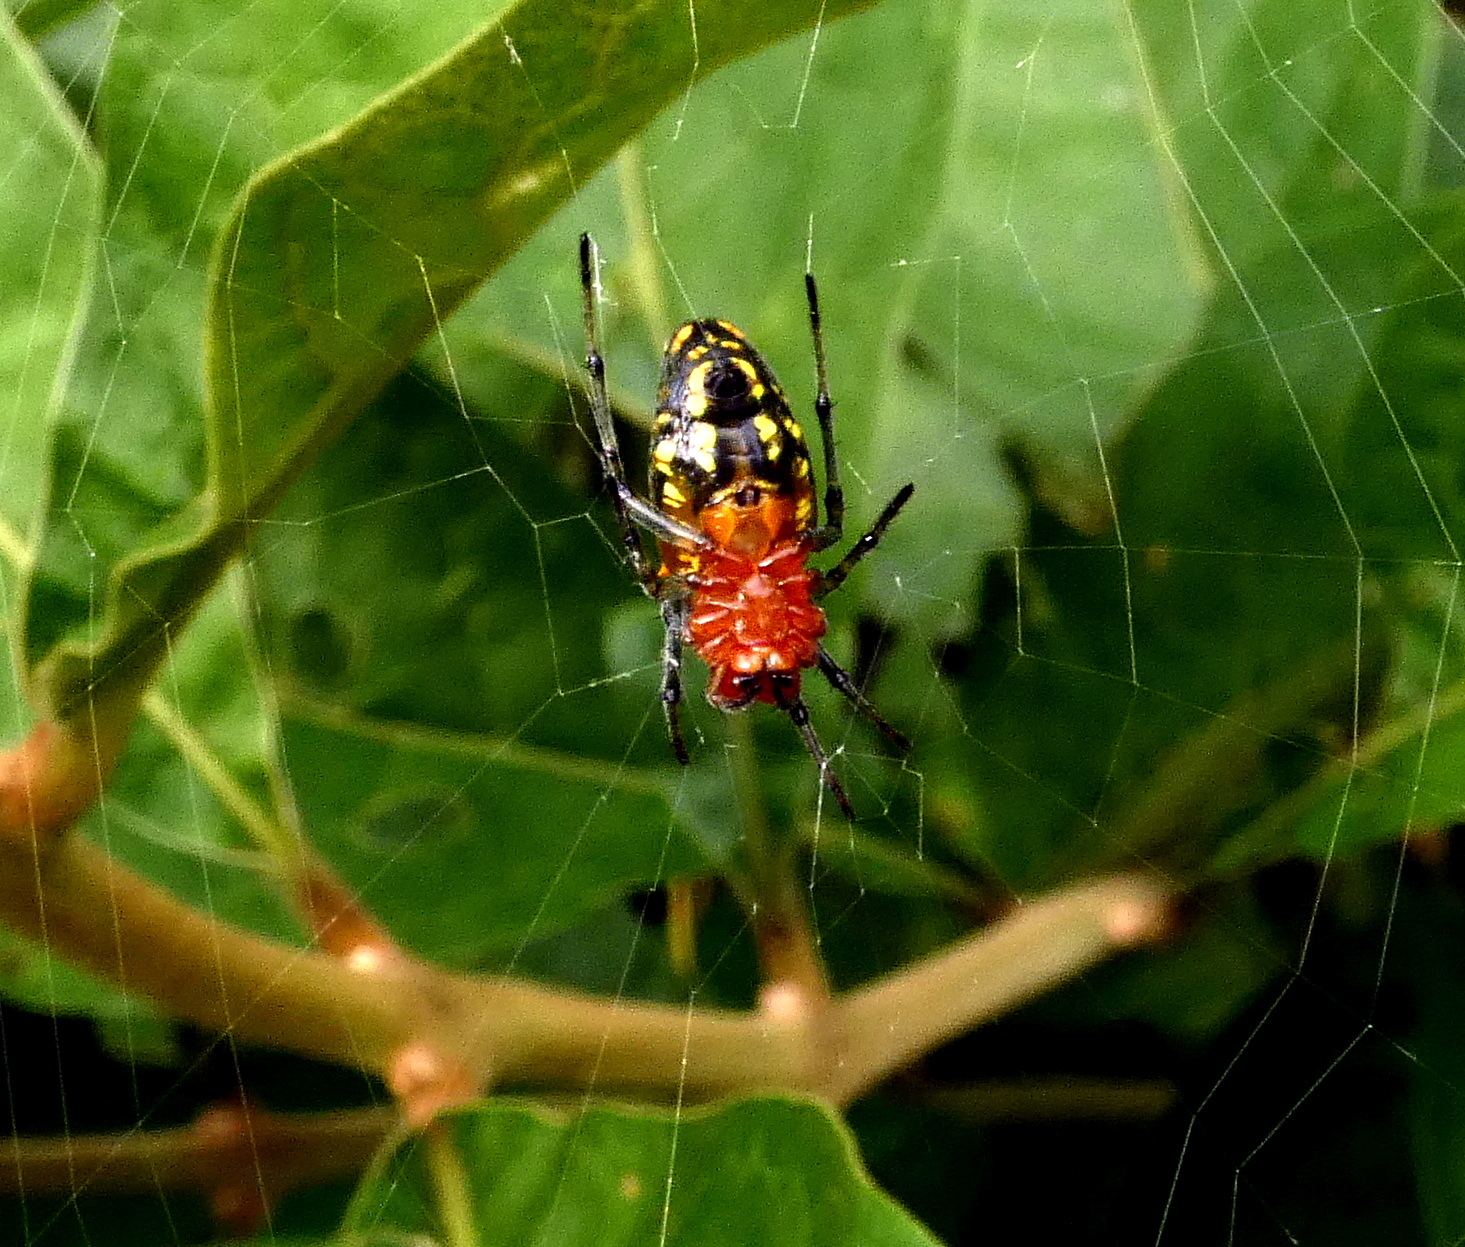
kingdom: Animalia
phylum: Arthropoda
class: Arachnida
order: Araneae
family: Araneidae
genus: Alpaida
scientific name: Alpaida bicornuta
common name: Orb weavers
